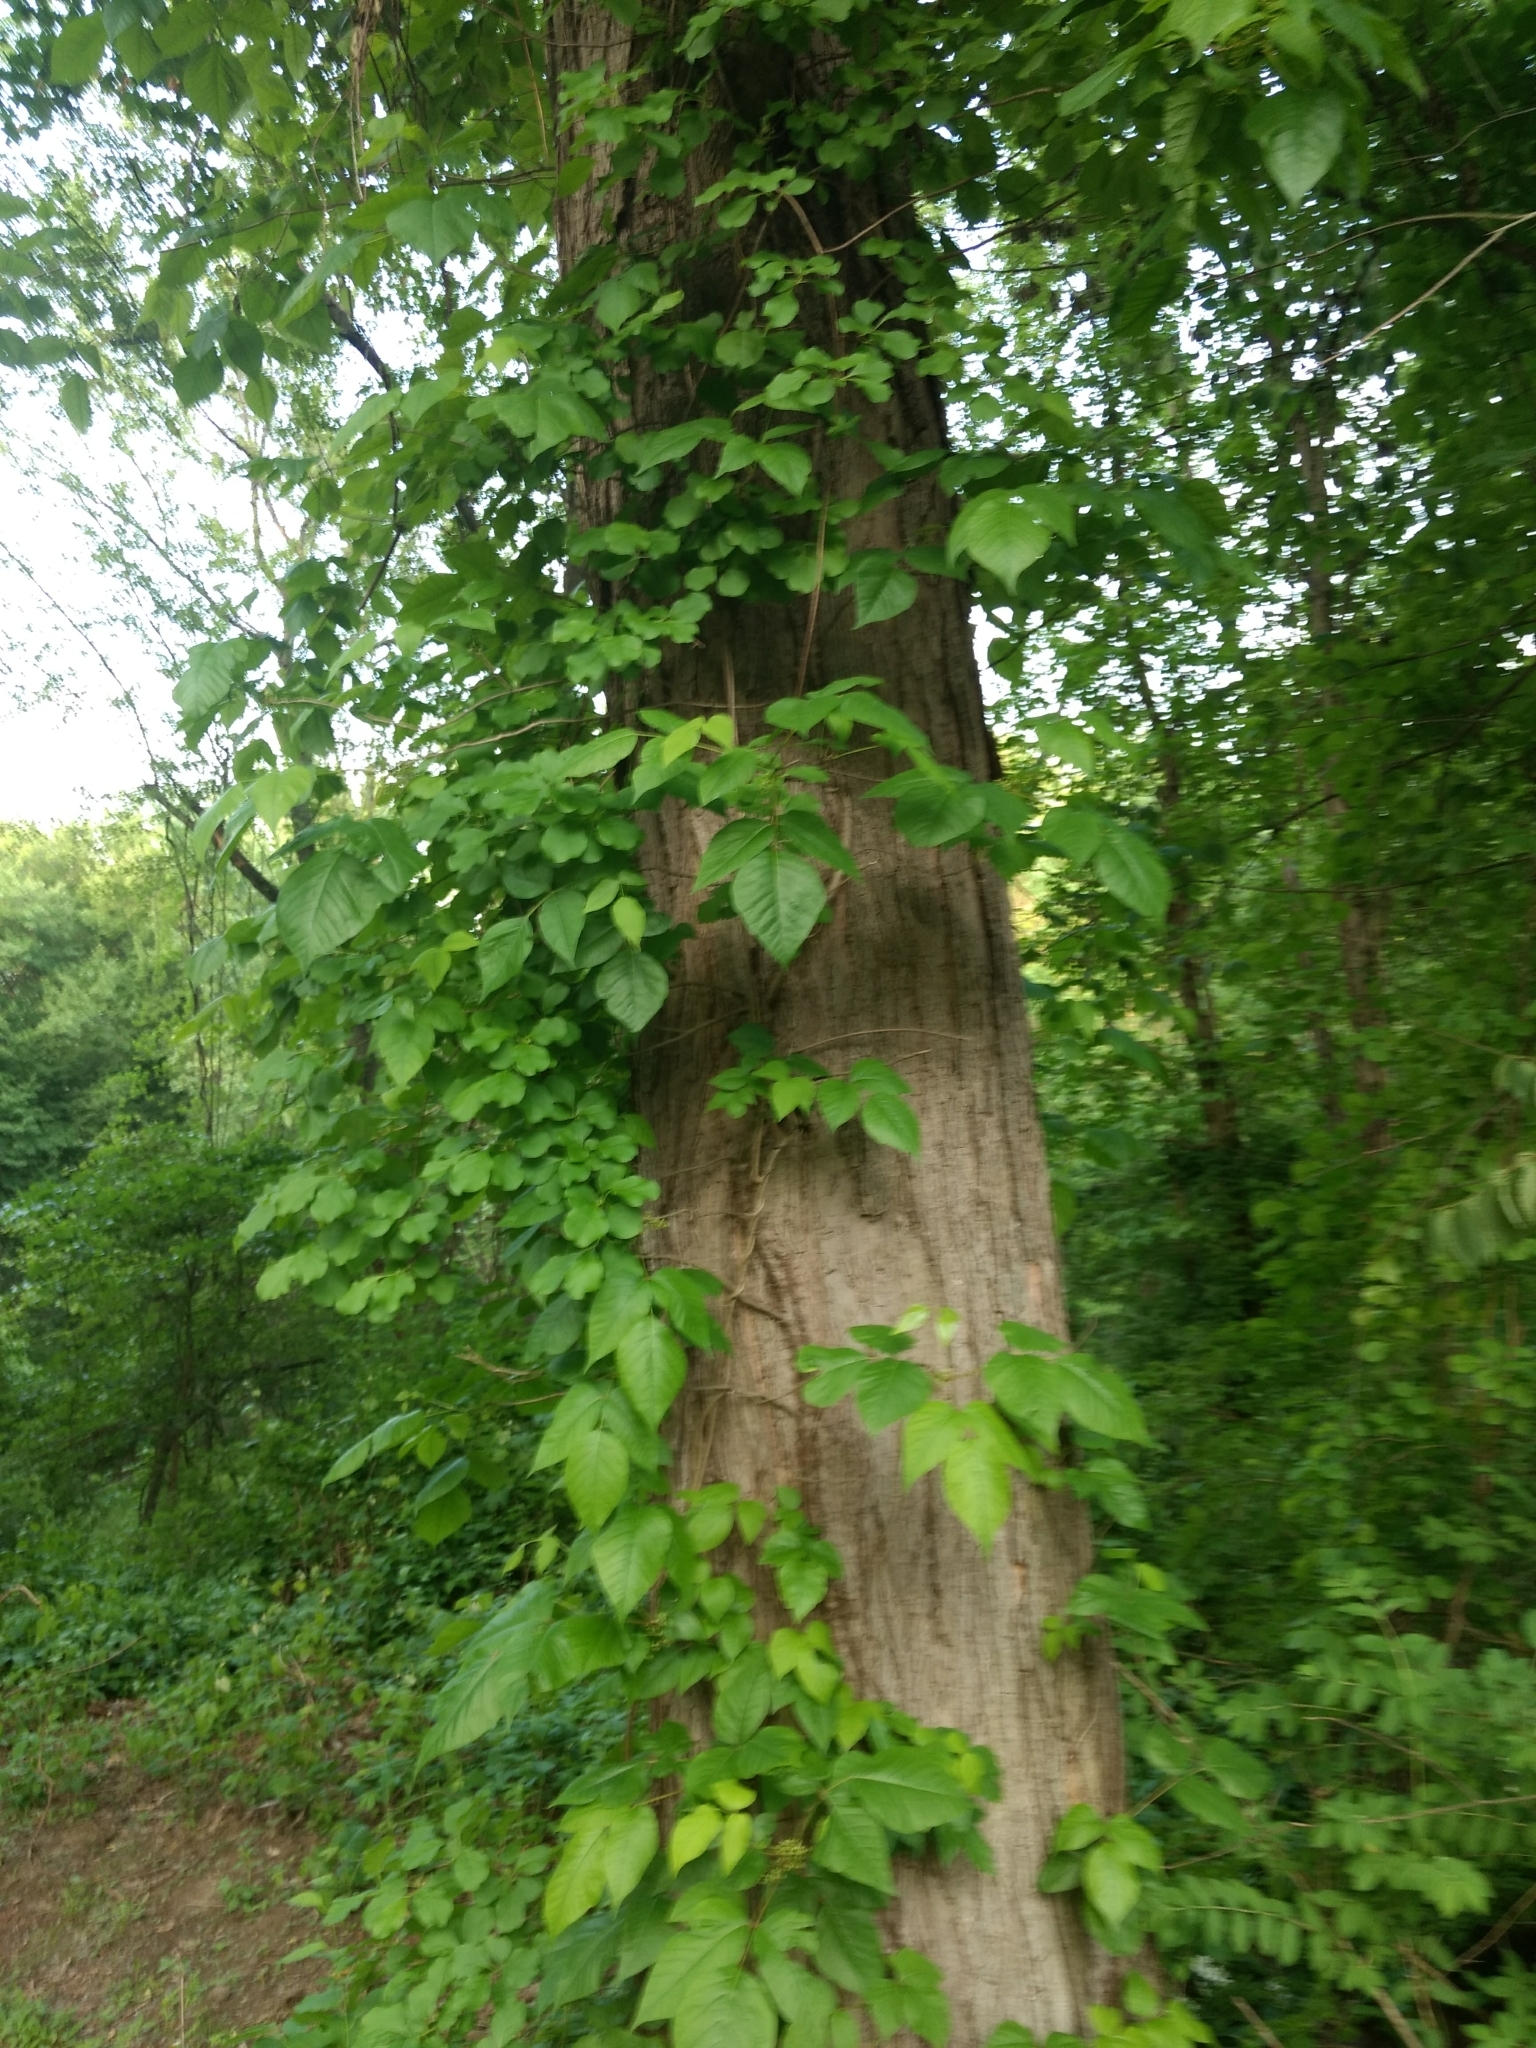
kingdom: Plantae
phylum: Tracheophyta
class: Magnoliopsida
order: Sapindales
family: Anacardiaceae
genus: Toxicodendron
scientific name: Toxicodendron radicans
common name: Poison ivy
